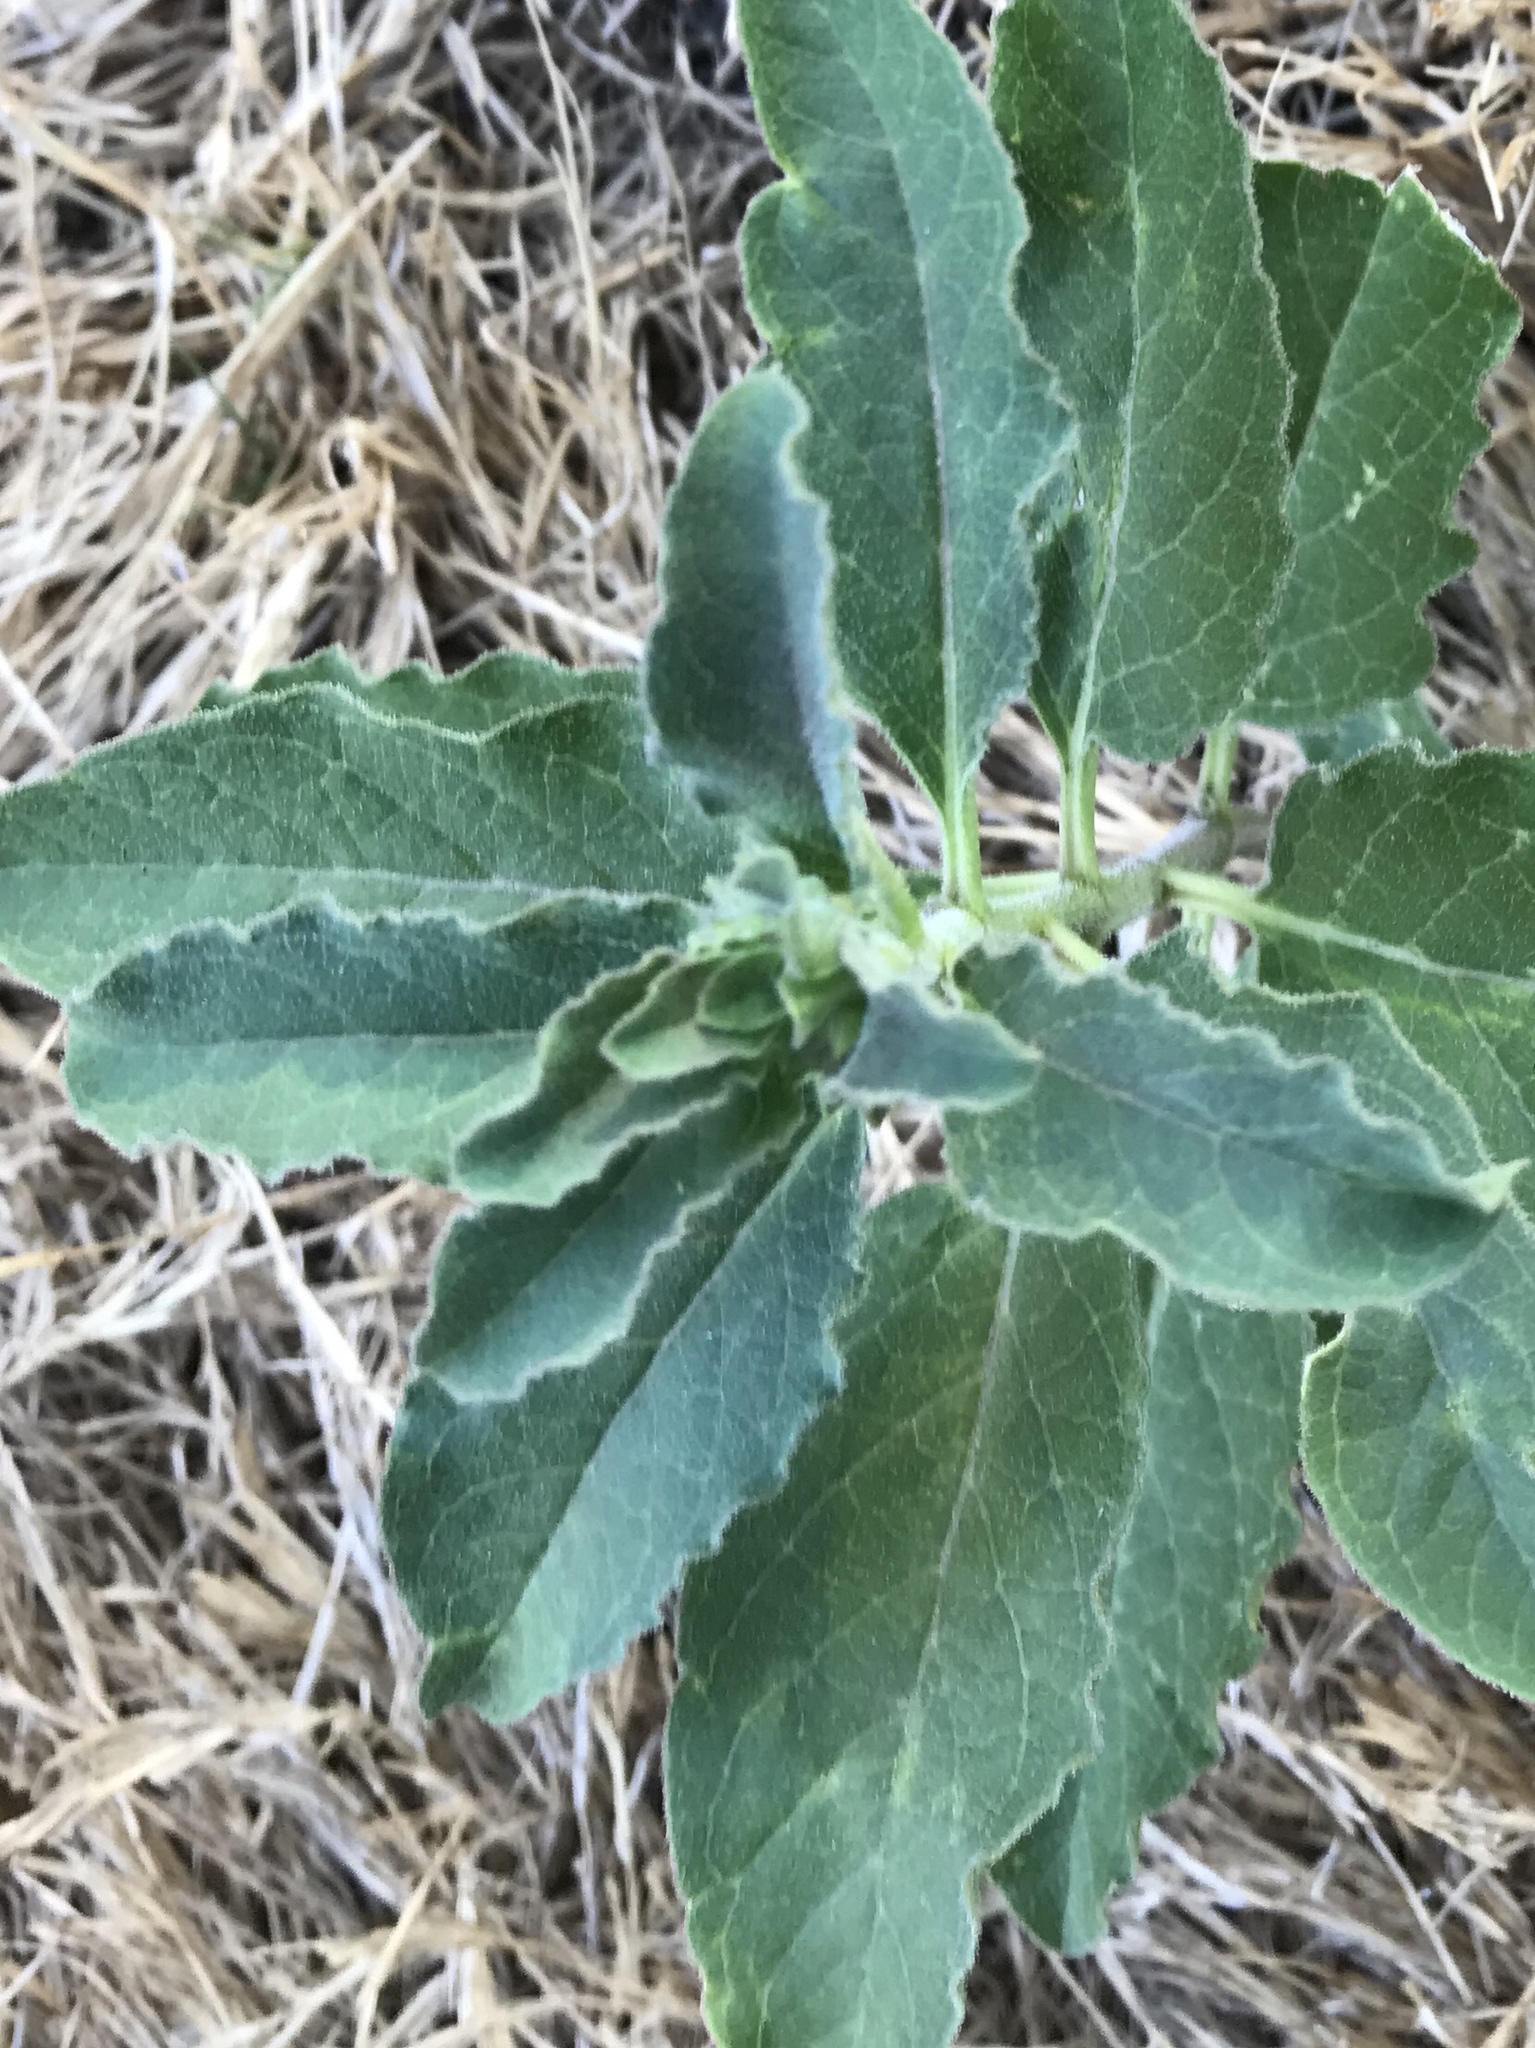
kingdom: Plantae
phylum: Tracheophyta
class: Magnoliopsida
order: Gentianales
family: Apocynaceae
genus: Asclepias
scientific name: Asclepias oenotheroides
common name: Zizotes milkweed
